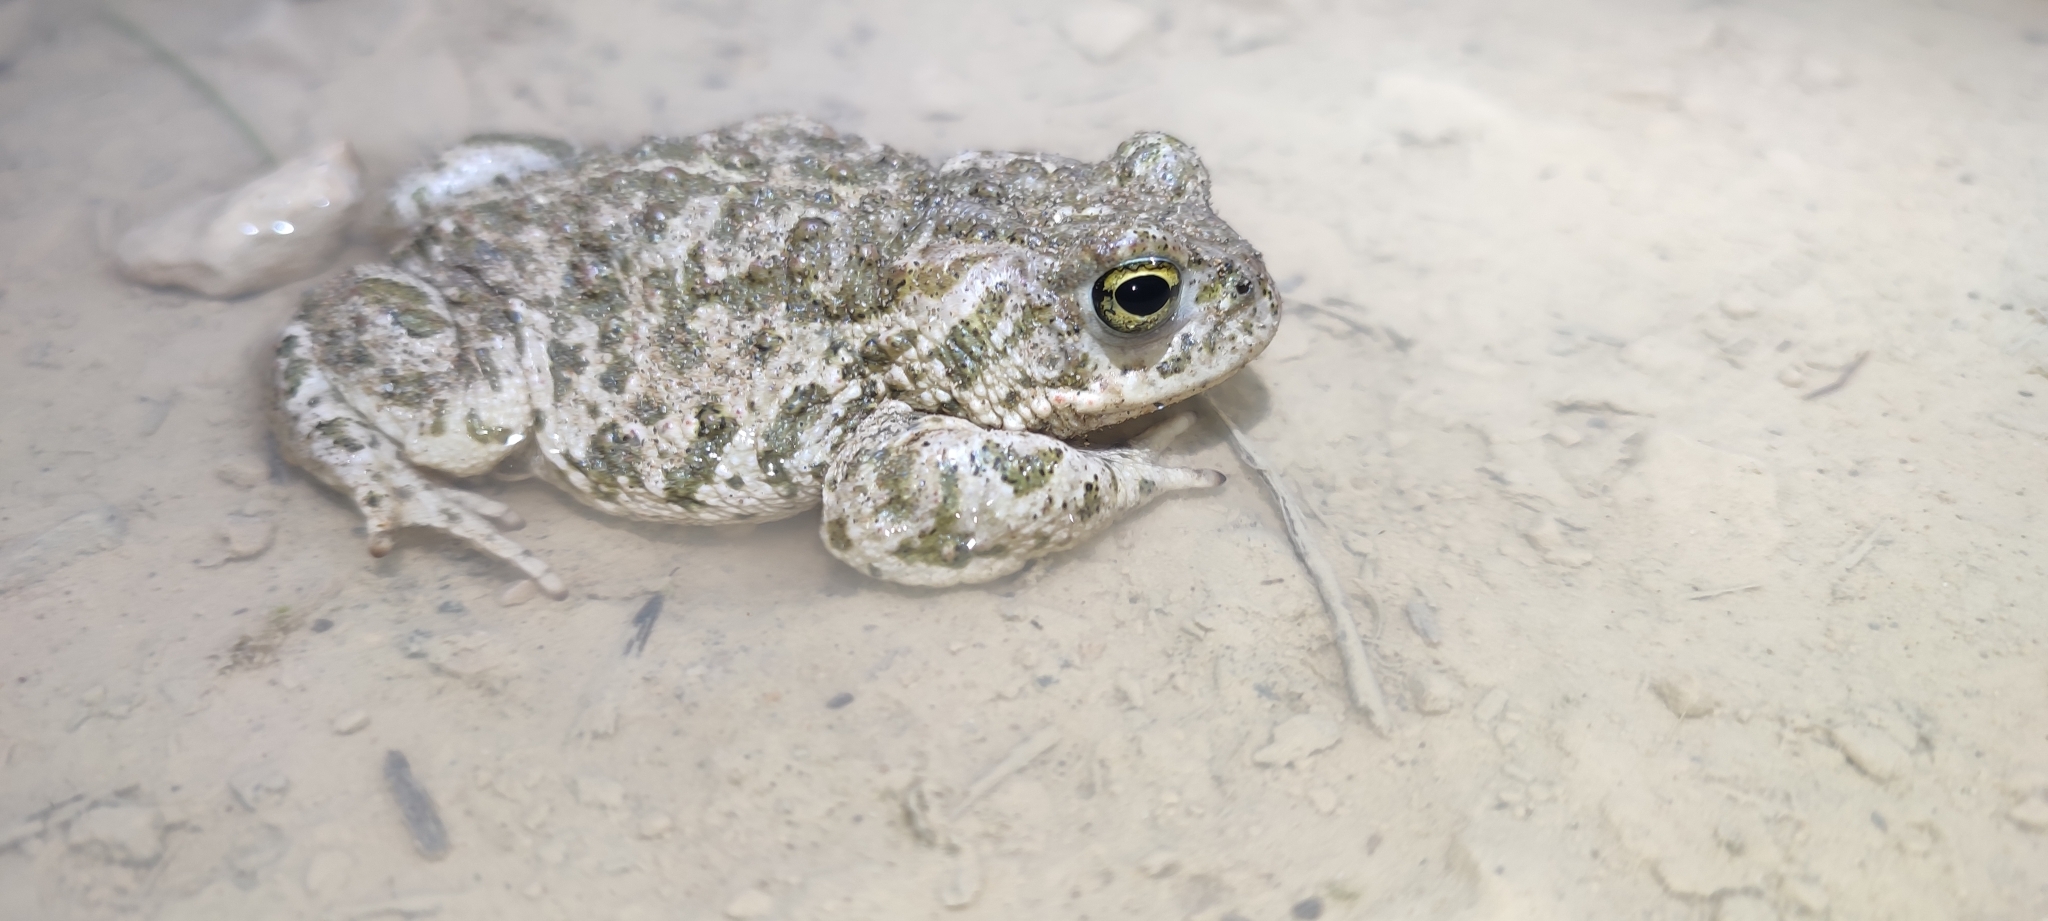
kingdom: Animalia
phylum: Chordata
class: Amphibia
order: Anura
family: Bufonidae
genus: Epidalea
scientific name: Epidalea calamita
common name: Natterjack toad
